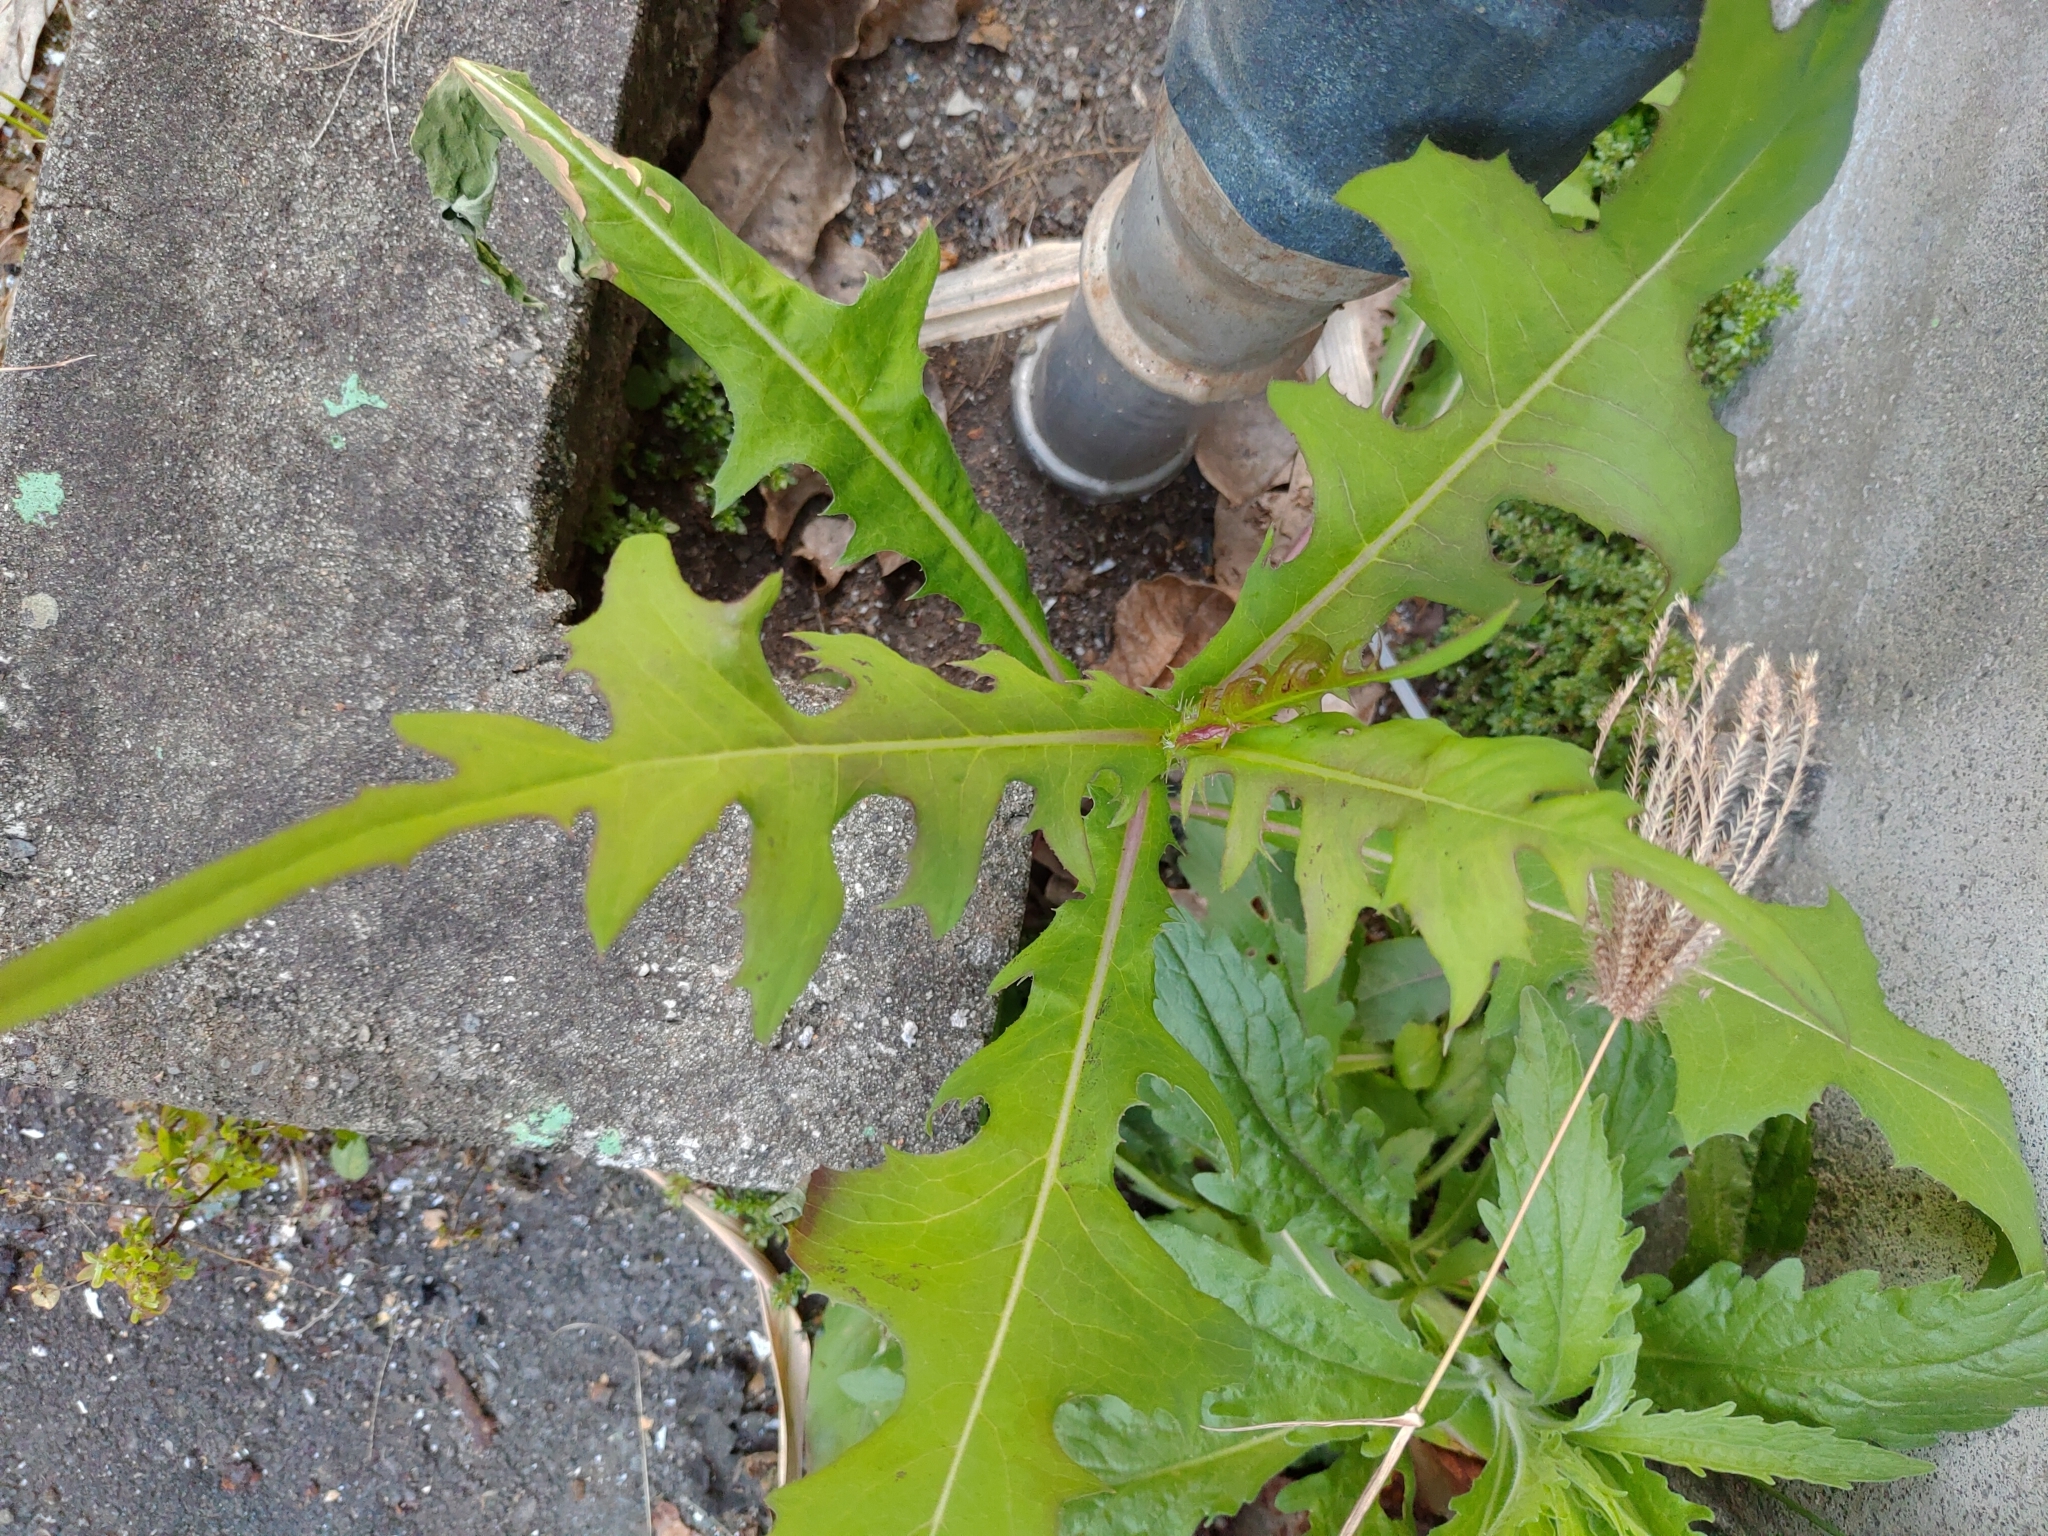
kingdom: Plantae
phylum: Tracheophyta
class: Magnoliopsida
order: Asterales
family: Asteraceae
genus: Lactuca
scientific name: Lactuca indica
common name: Wild lettuce
